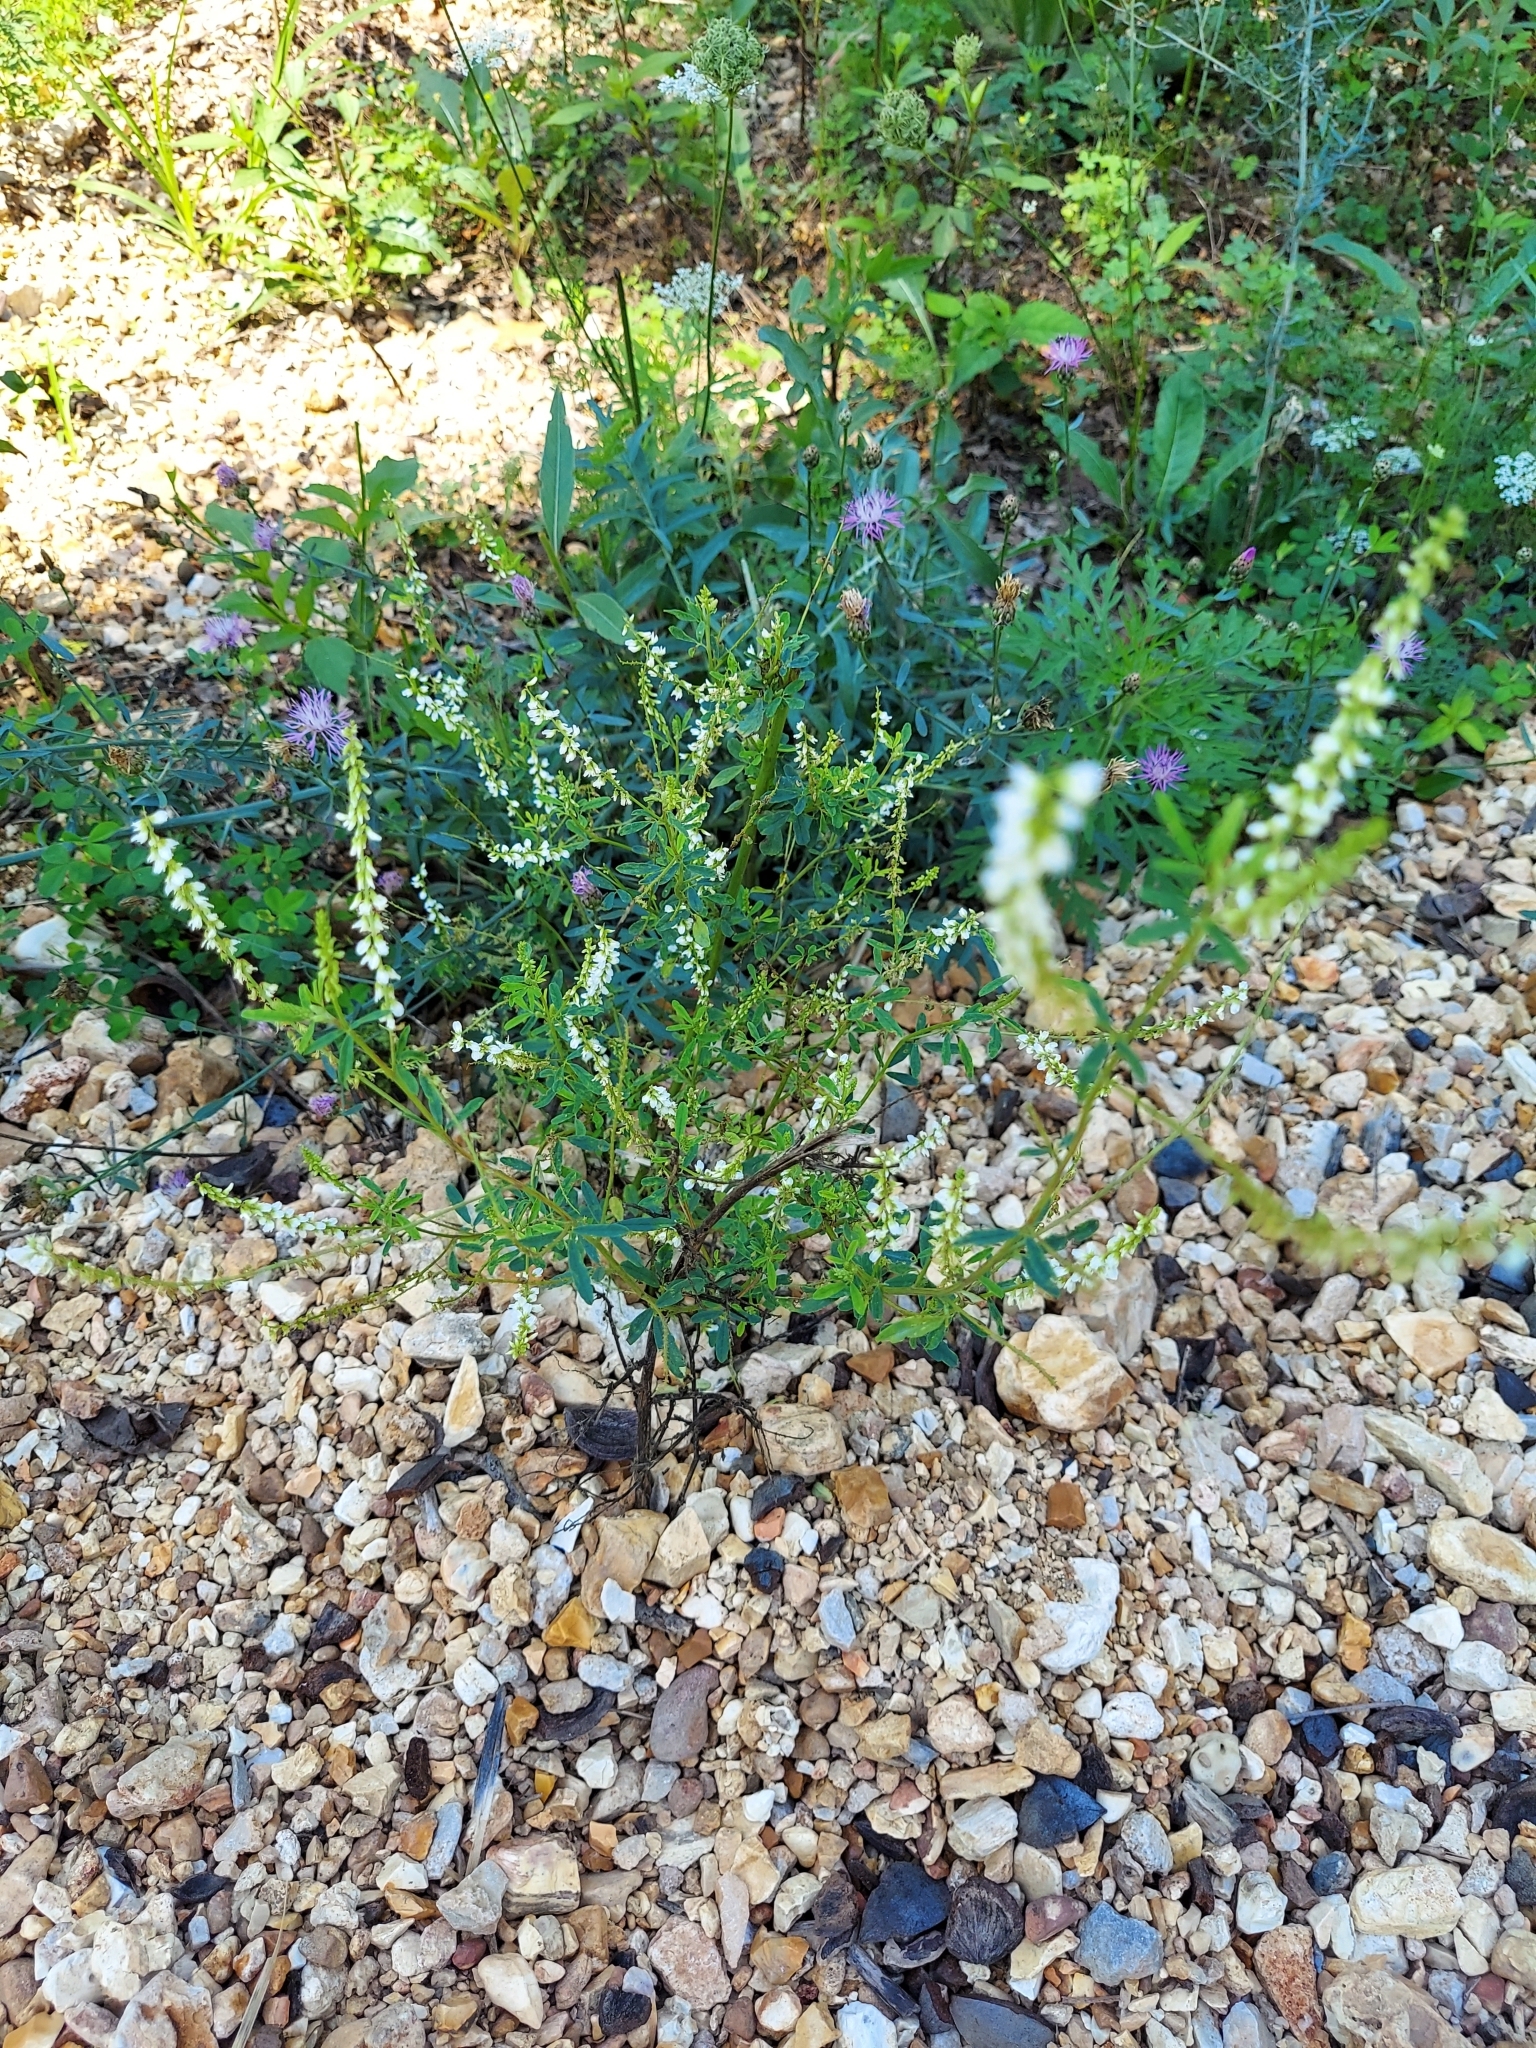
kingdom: Plantae
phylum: Tracheophyta
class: Magnoliopsida
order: Fabales
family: Fabaceae
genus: Melilotus
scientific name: Melilotus albus
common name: White melilot
